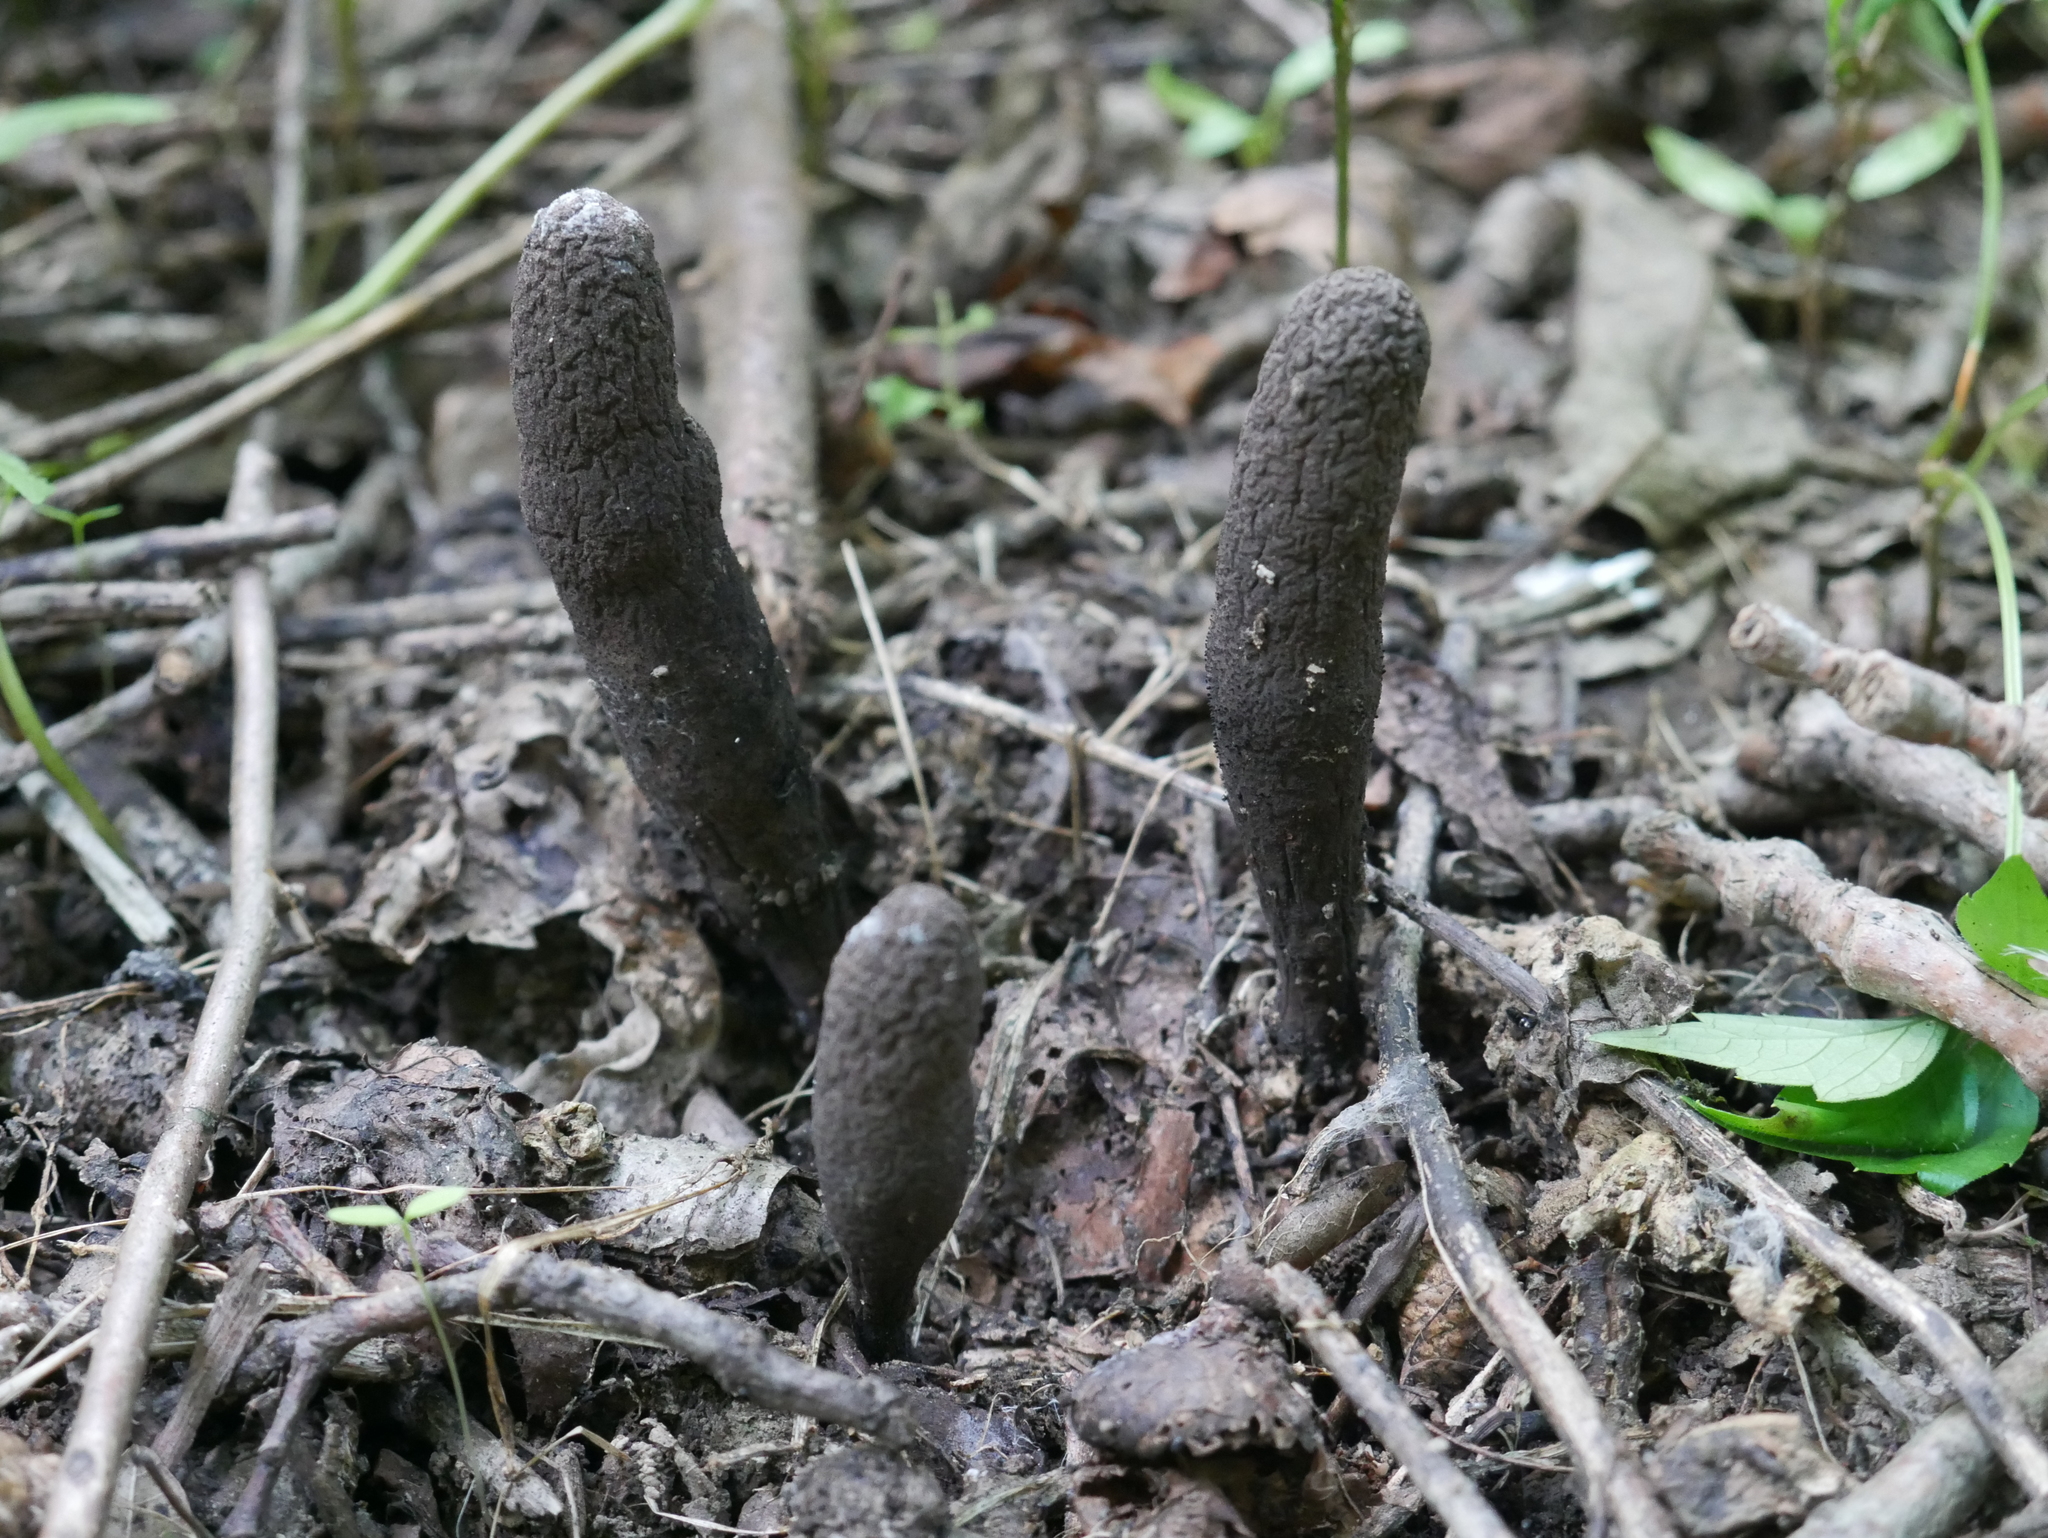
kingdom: Fungi
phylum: Ascomycota
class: Sordariomycetes
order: Xylariales
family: Xylariaceae
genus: Xylaria
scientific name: Xylaria polymorpha
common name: Dead man's fingers
